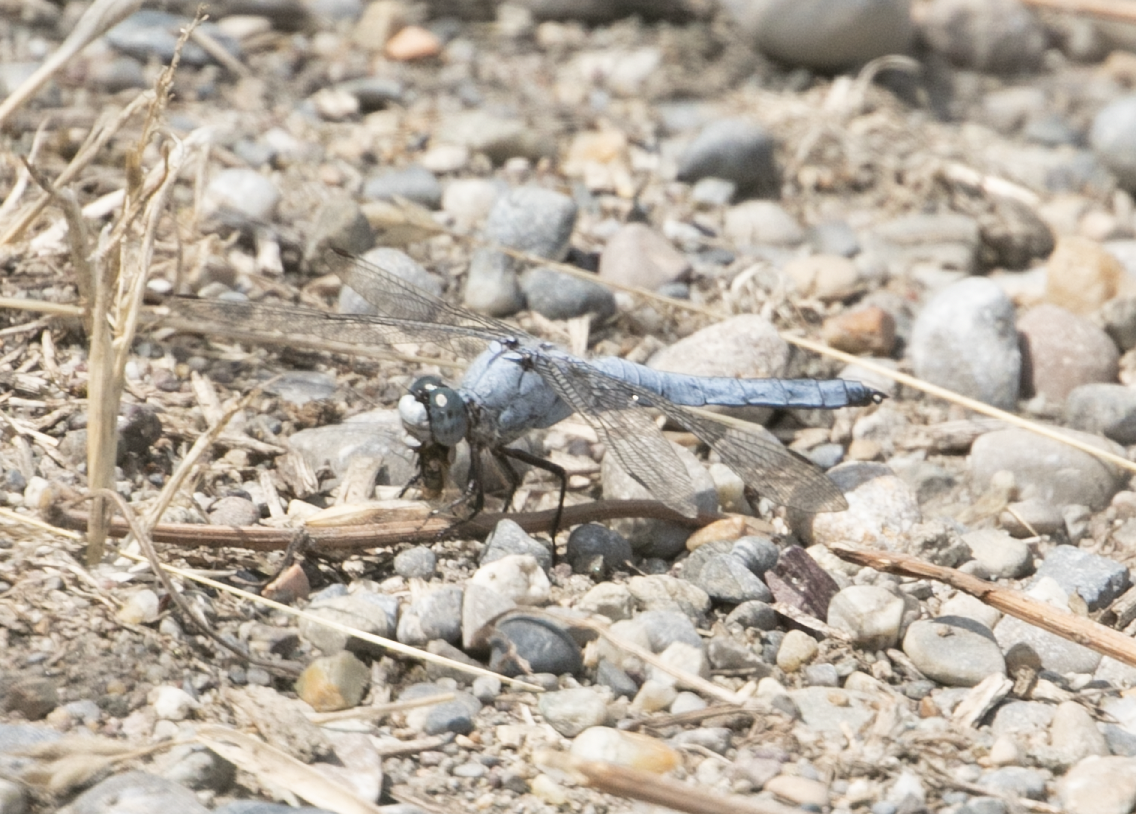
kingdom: Animalia
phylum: Arthropoda
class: Insecta
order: Odonata
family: Libellulidae
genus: Orthetrum
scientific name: Orthetrum brunneum
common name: Southern skimmer
